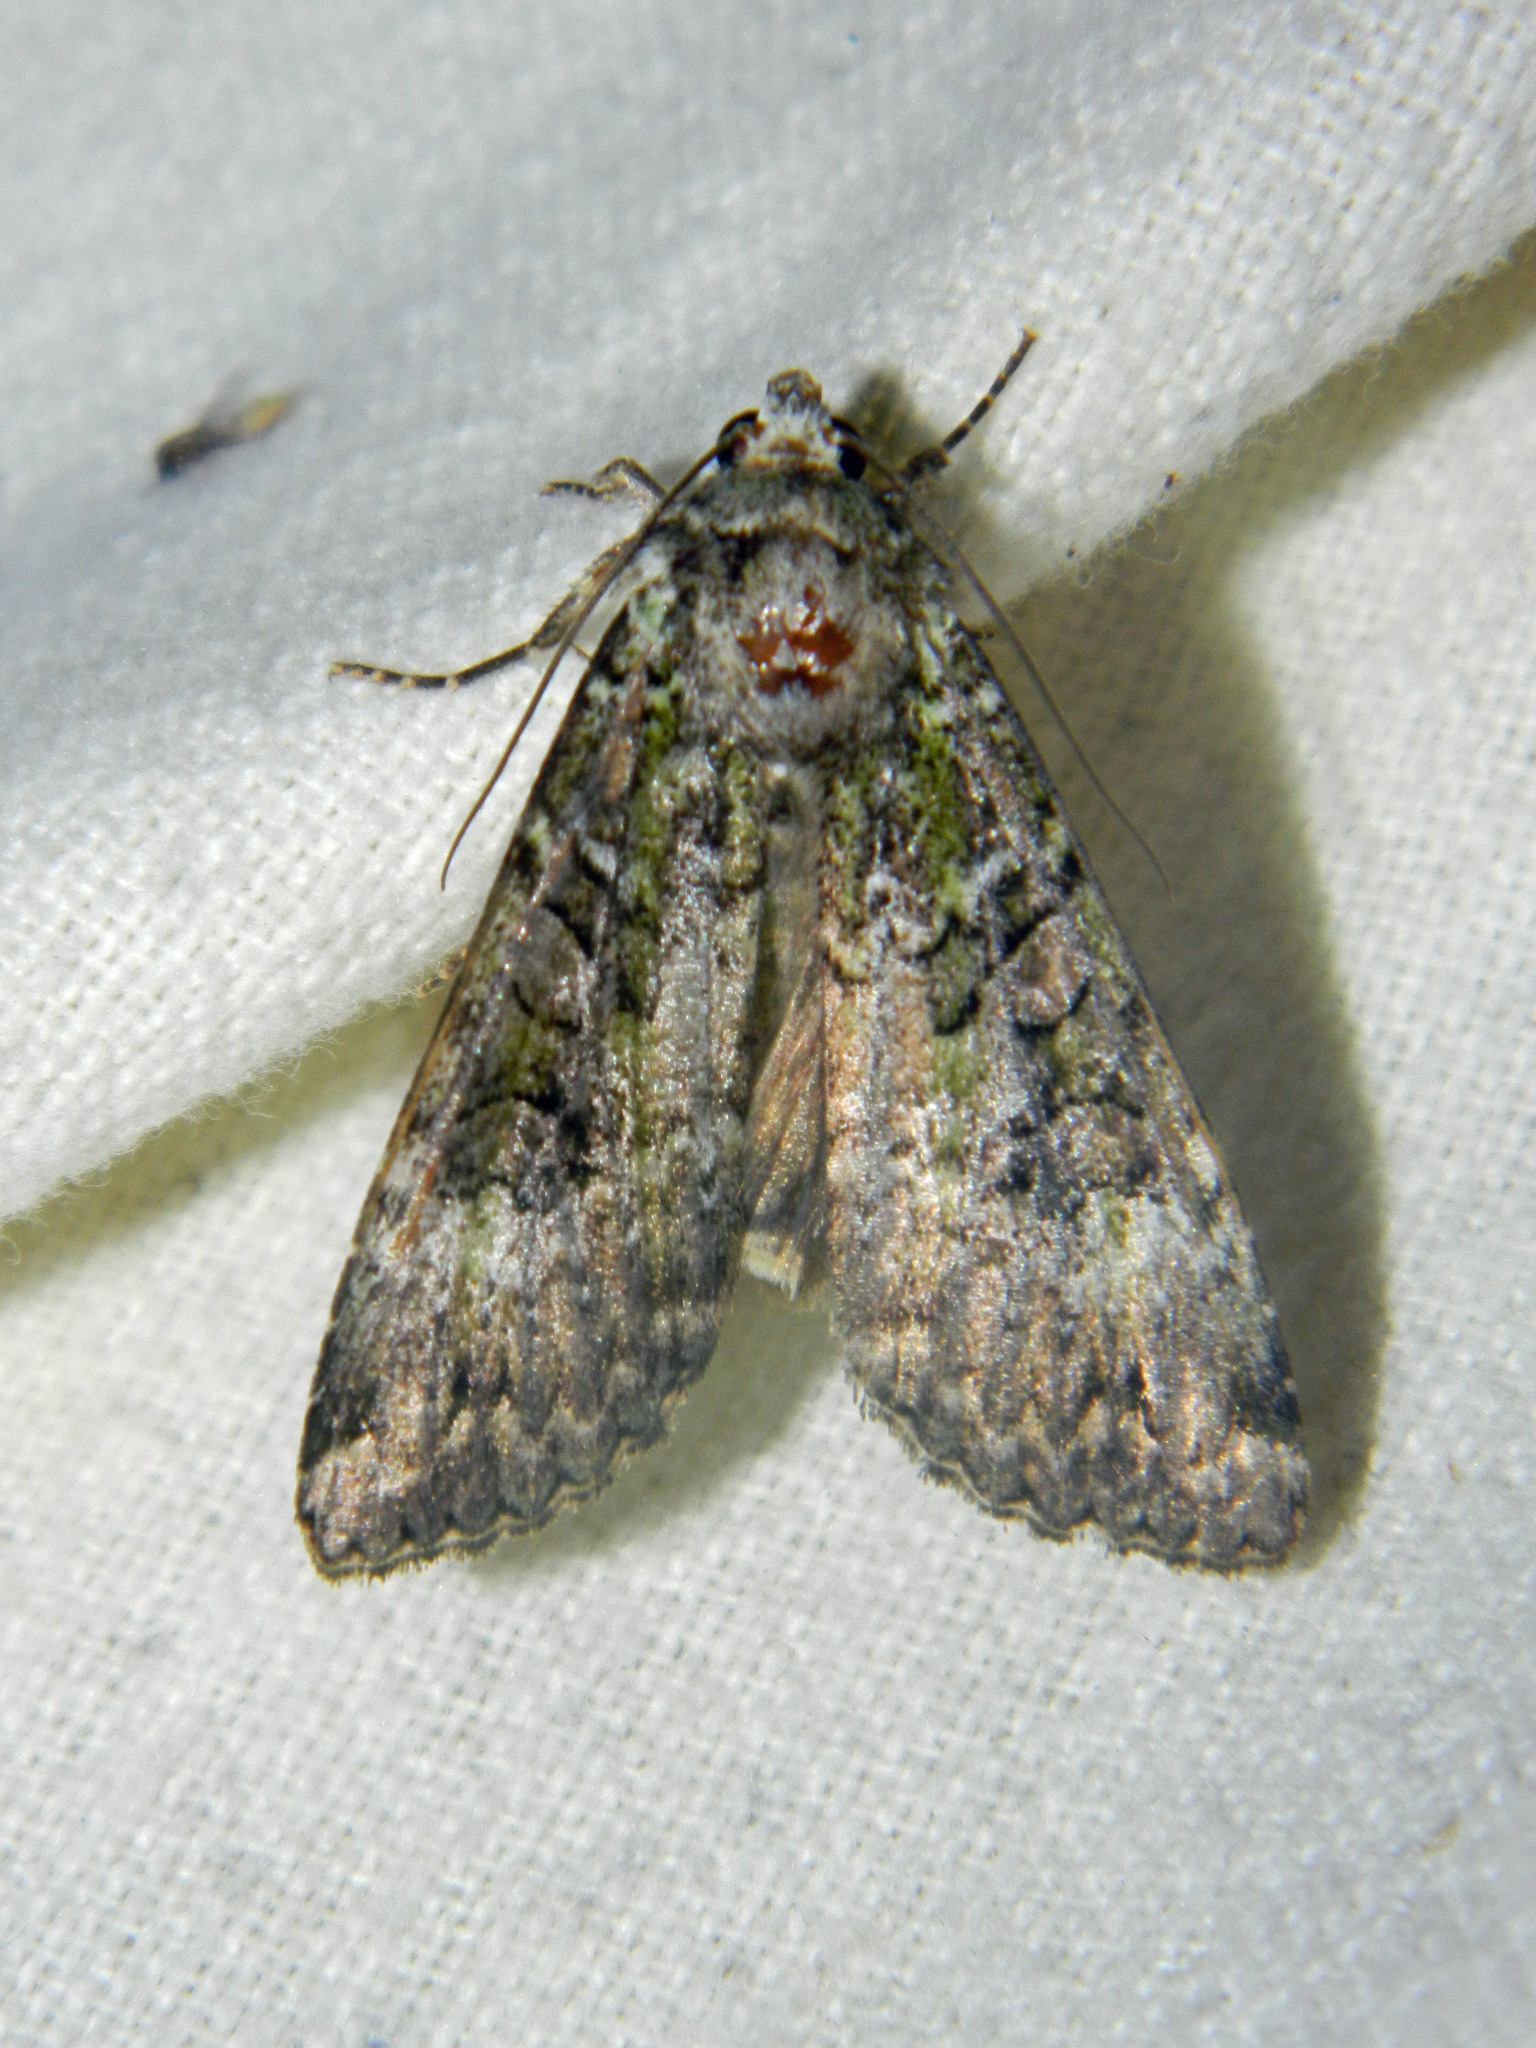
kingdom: Animalia
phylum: Arthropoda
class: Insecta
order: Lepidoptera
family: Noctuidae
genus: Anaplectoides
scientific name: Anaplectoides prasina
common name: Green arches
